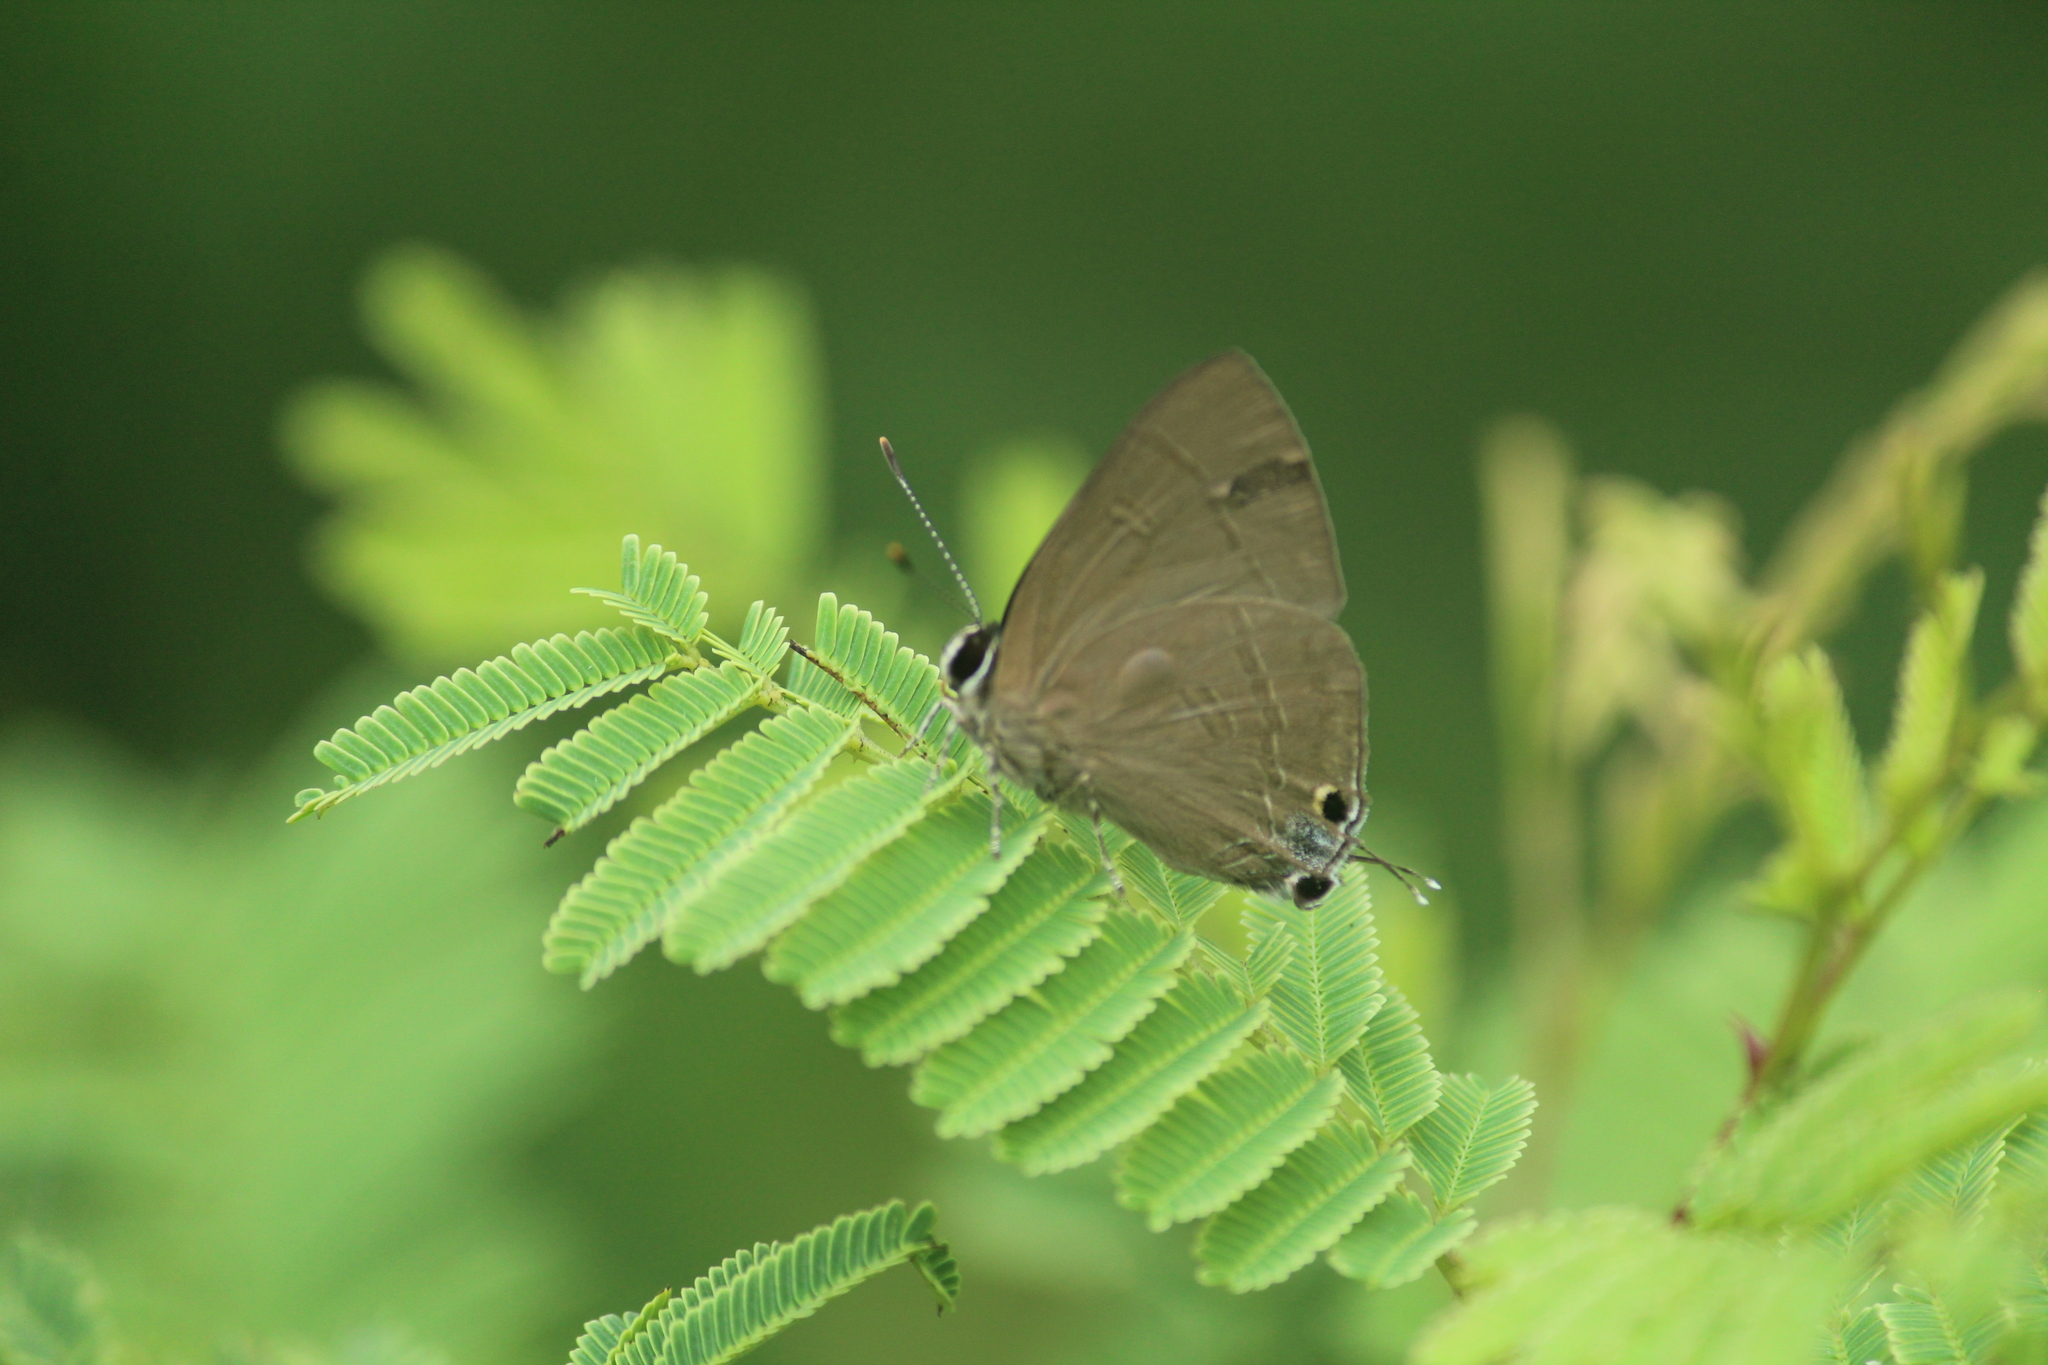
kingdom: Animalia
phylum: Arthropoda
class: Insecta
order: Lepidoptera
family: Lycaenidae
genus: Rapala
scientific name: Rapala manea
